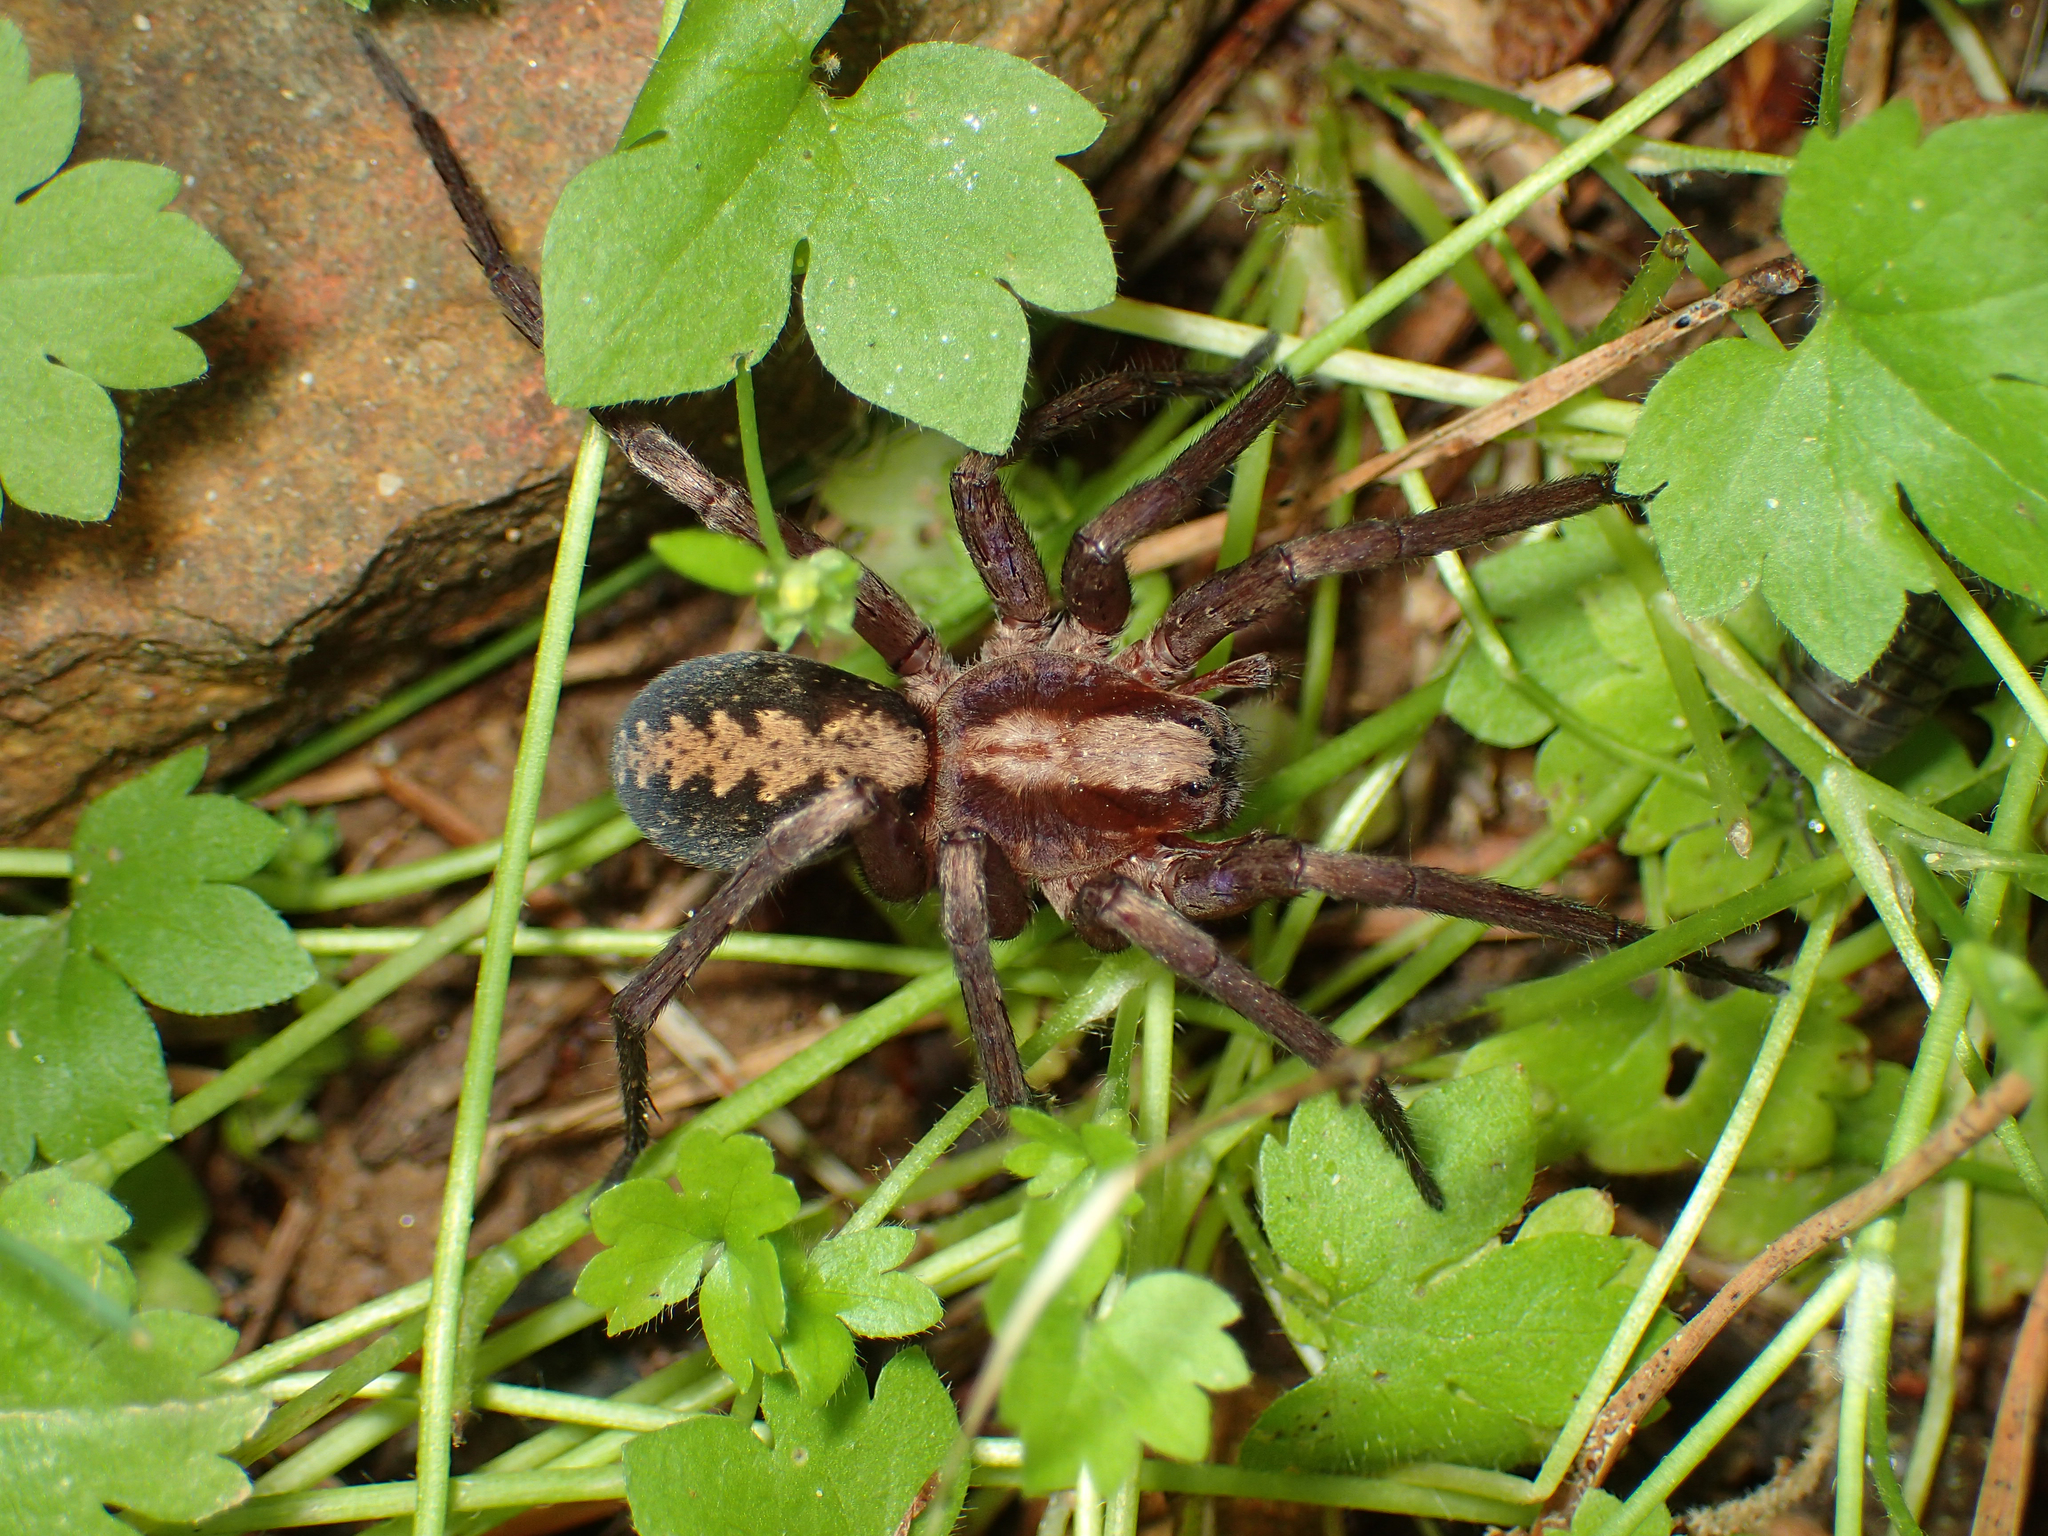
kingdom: Animalia
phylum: Arthropoda
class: Arachnida
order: Araneae
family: Ctenidae
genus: Ctenus
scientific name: Ctenus hibernalis
